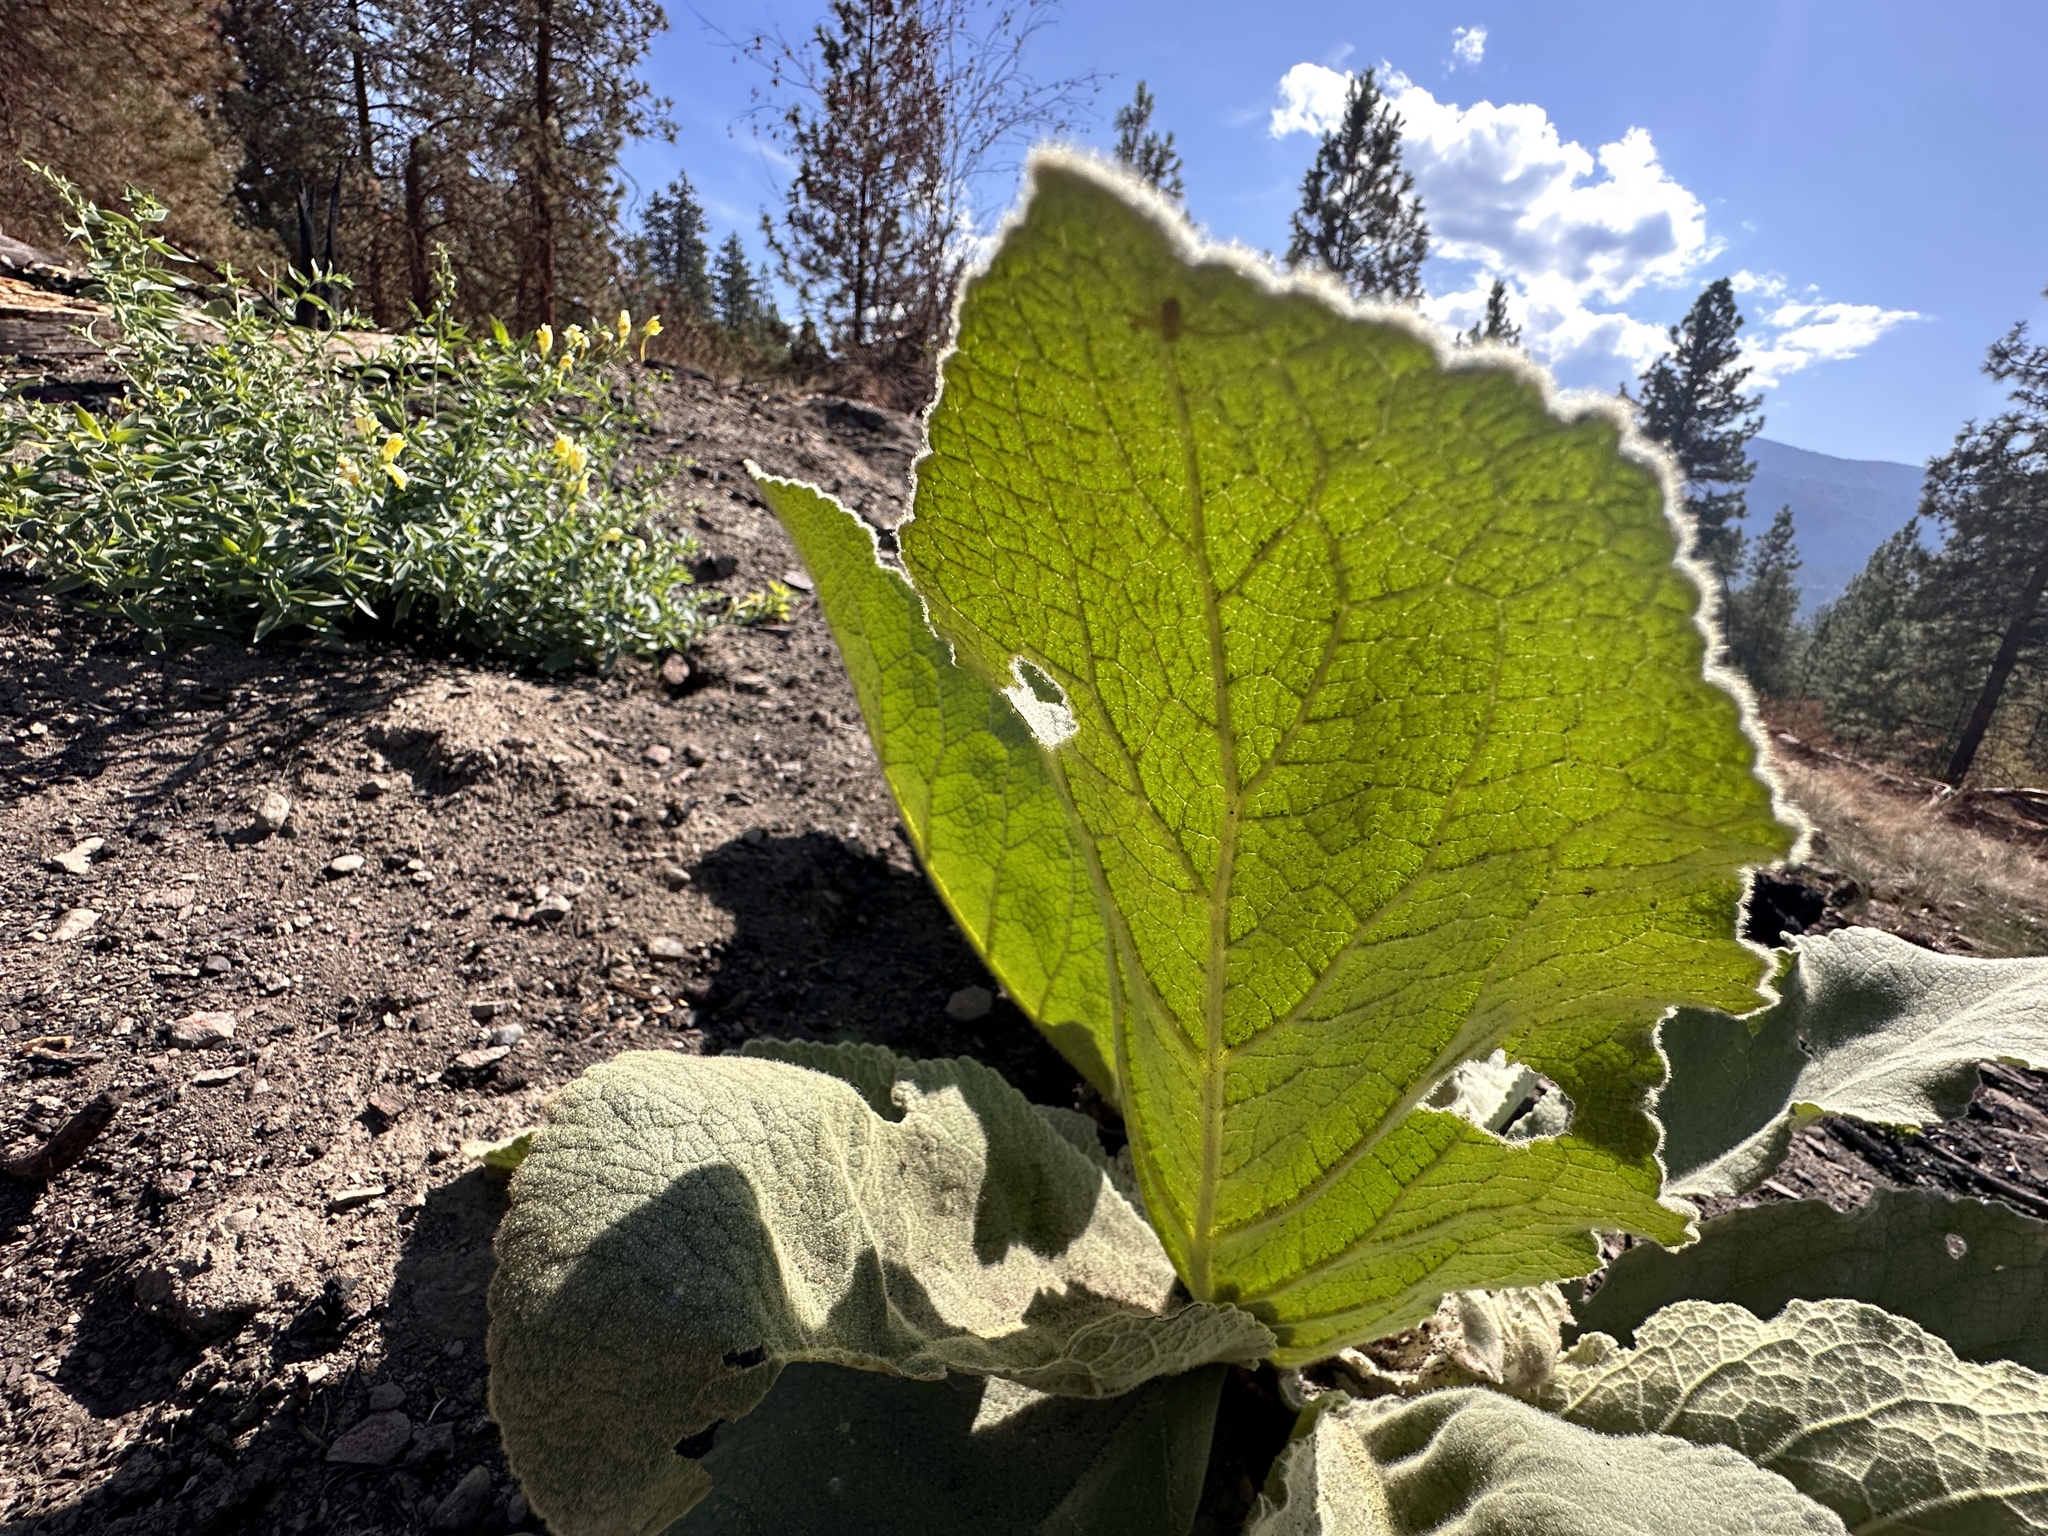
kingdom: Plantae
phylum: Tracheophyta
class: Magnoliopsida
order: Lamiales
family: Scrophulariaceae
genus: Verbascum
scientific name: Verbascum thapsus
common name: Common mullein
